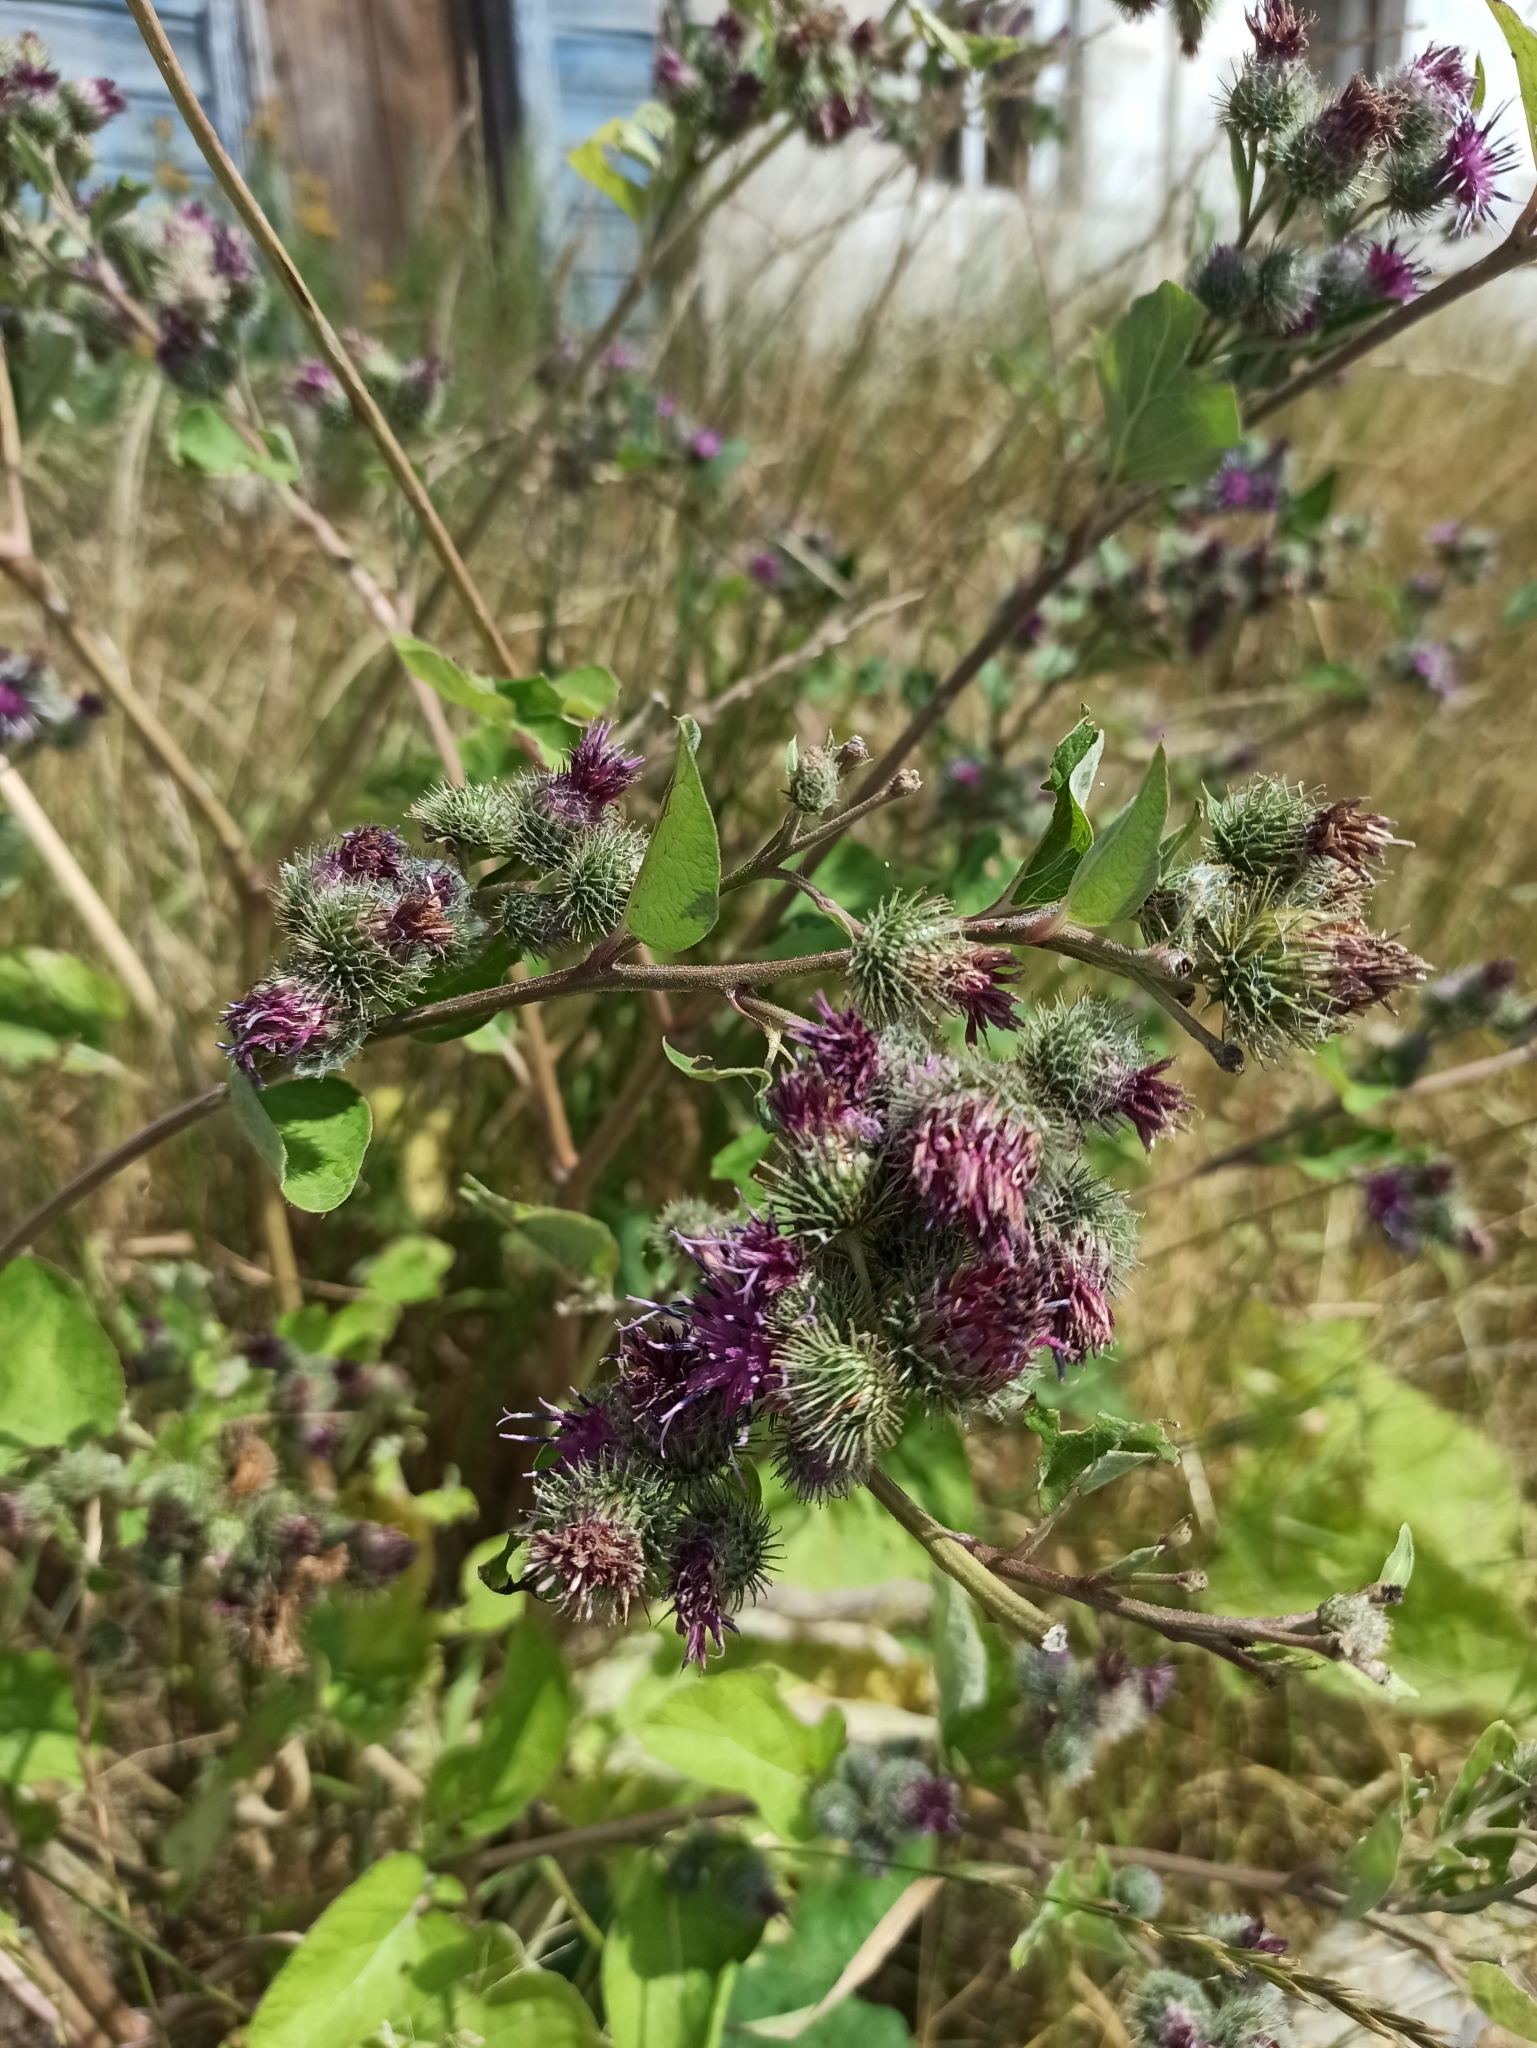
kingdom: Plantae
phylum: Tracheophyta
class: Magnoliopsida
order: Asterales
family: Asteraceae
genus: Arctium
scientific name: Arctium tomentosum
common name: Woolly burdock
